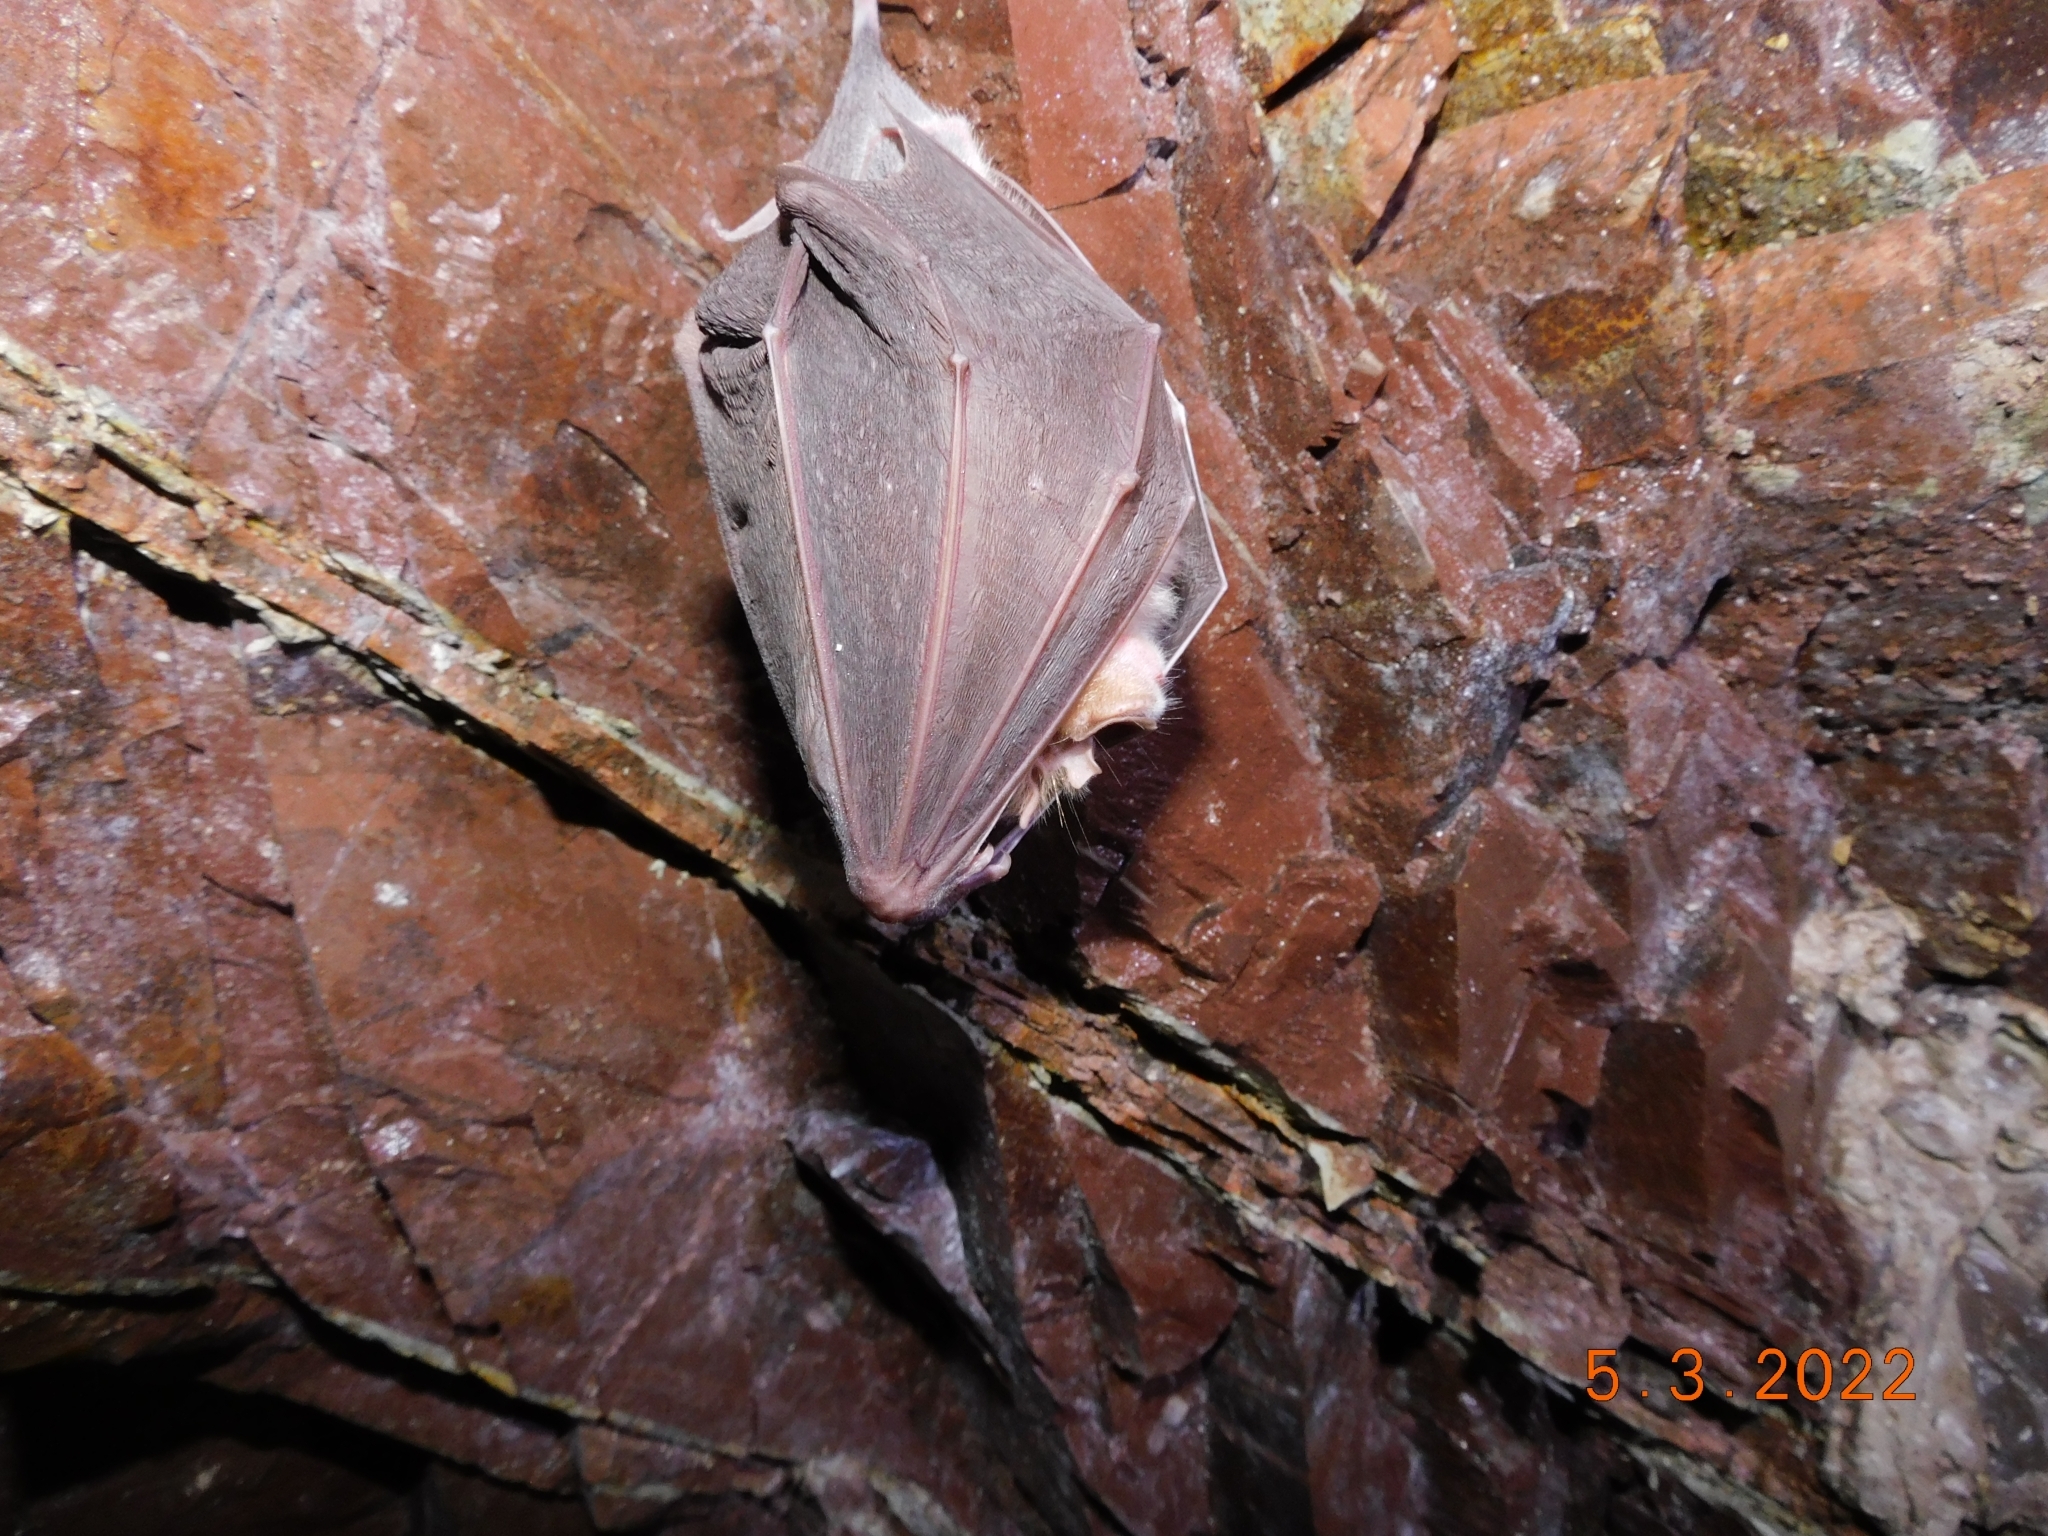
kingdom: Animalia
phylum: Chordata
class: Mammalia
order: Chiroptera
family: Rhinolophidae
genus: Rhinolophus
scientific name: Rhinolophus ferrumequinum
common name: Greater horseshoe bat
